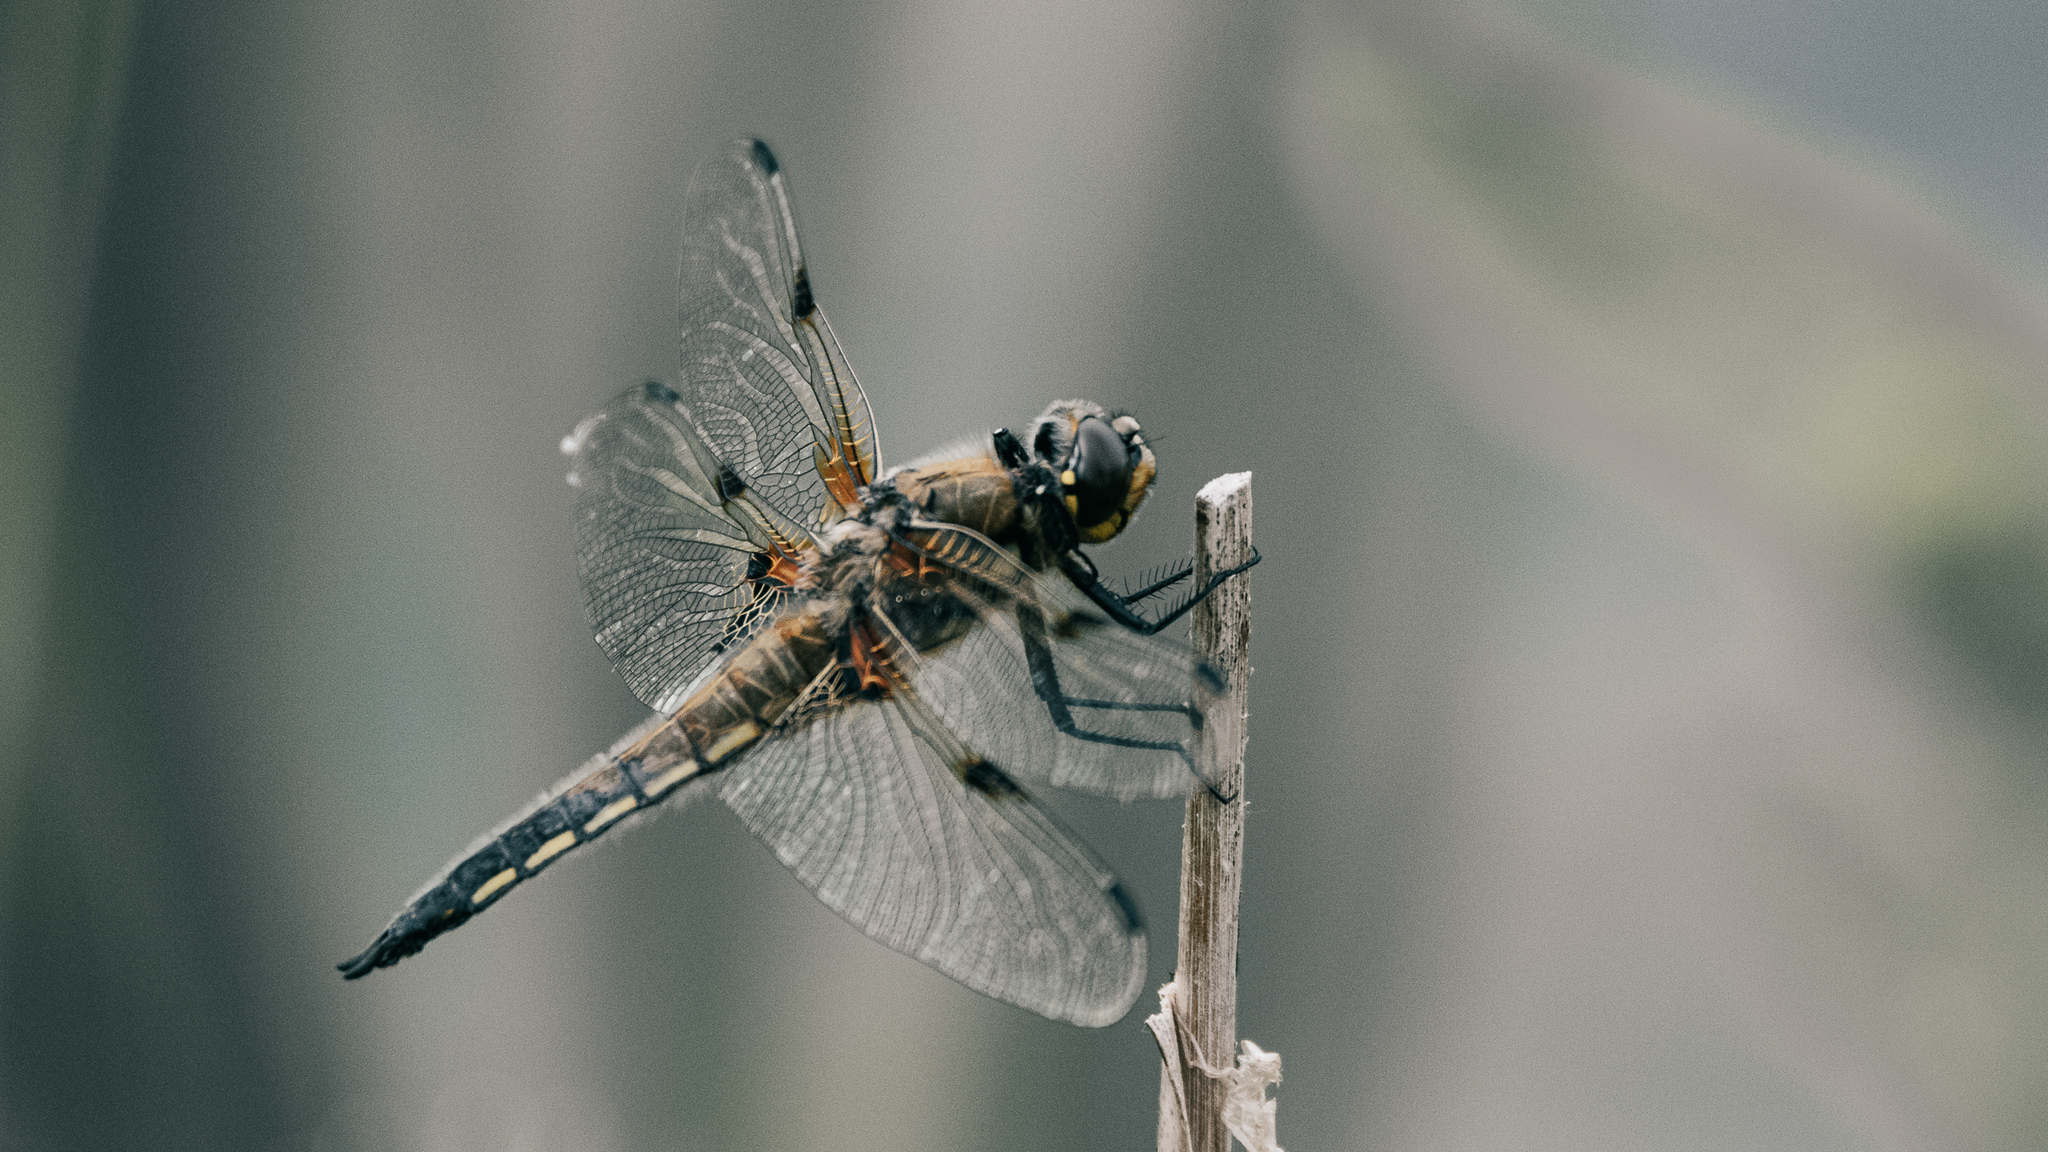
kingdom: Animalia
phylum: Arthropoda
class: Insecta
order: Odonata
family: Libellulidae
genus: Libellula
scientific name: Libellula quadrimaculata
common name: Four-spotted chaser
